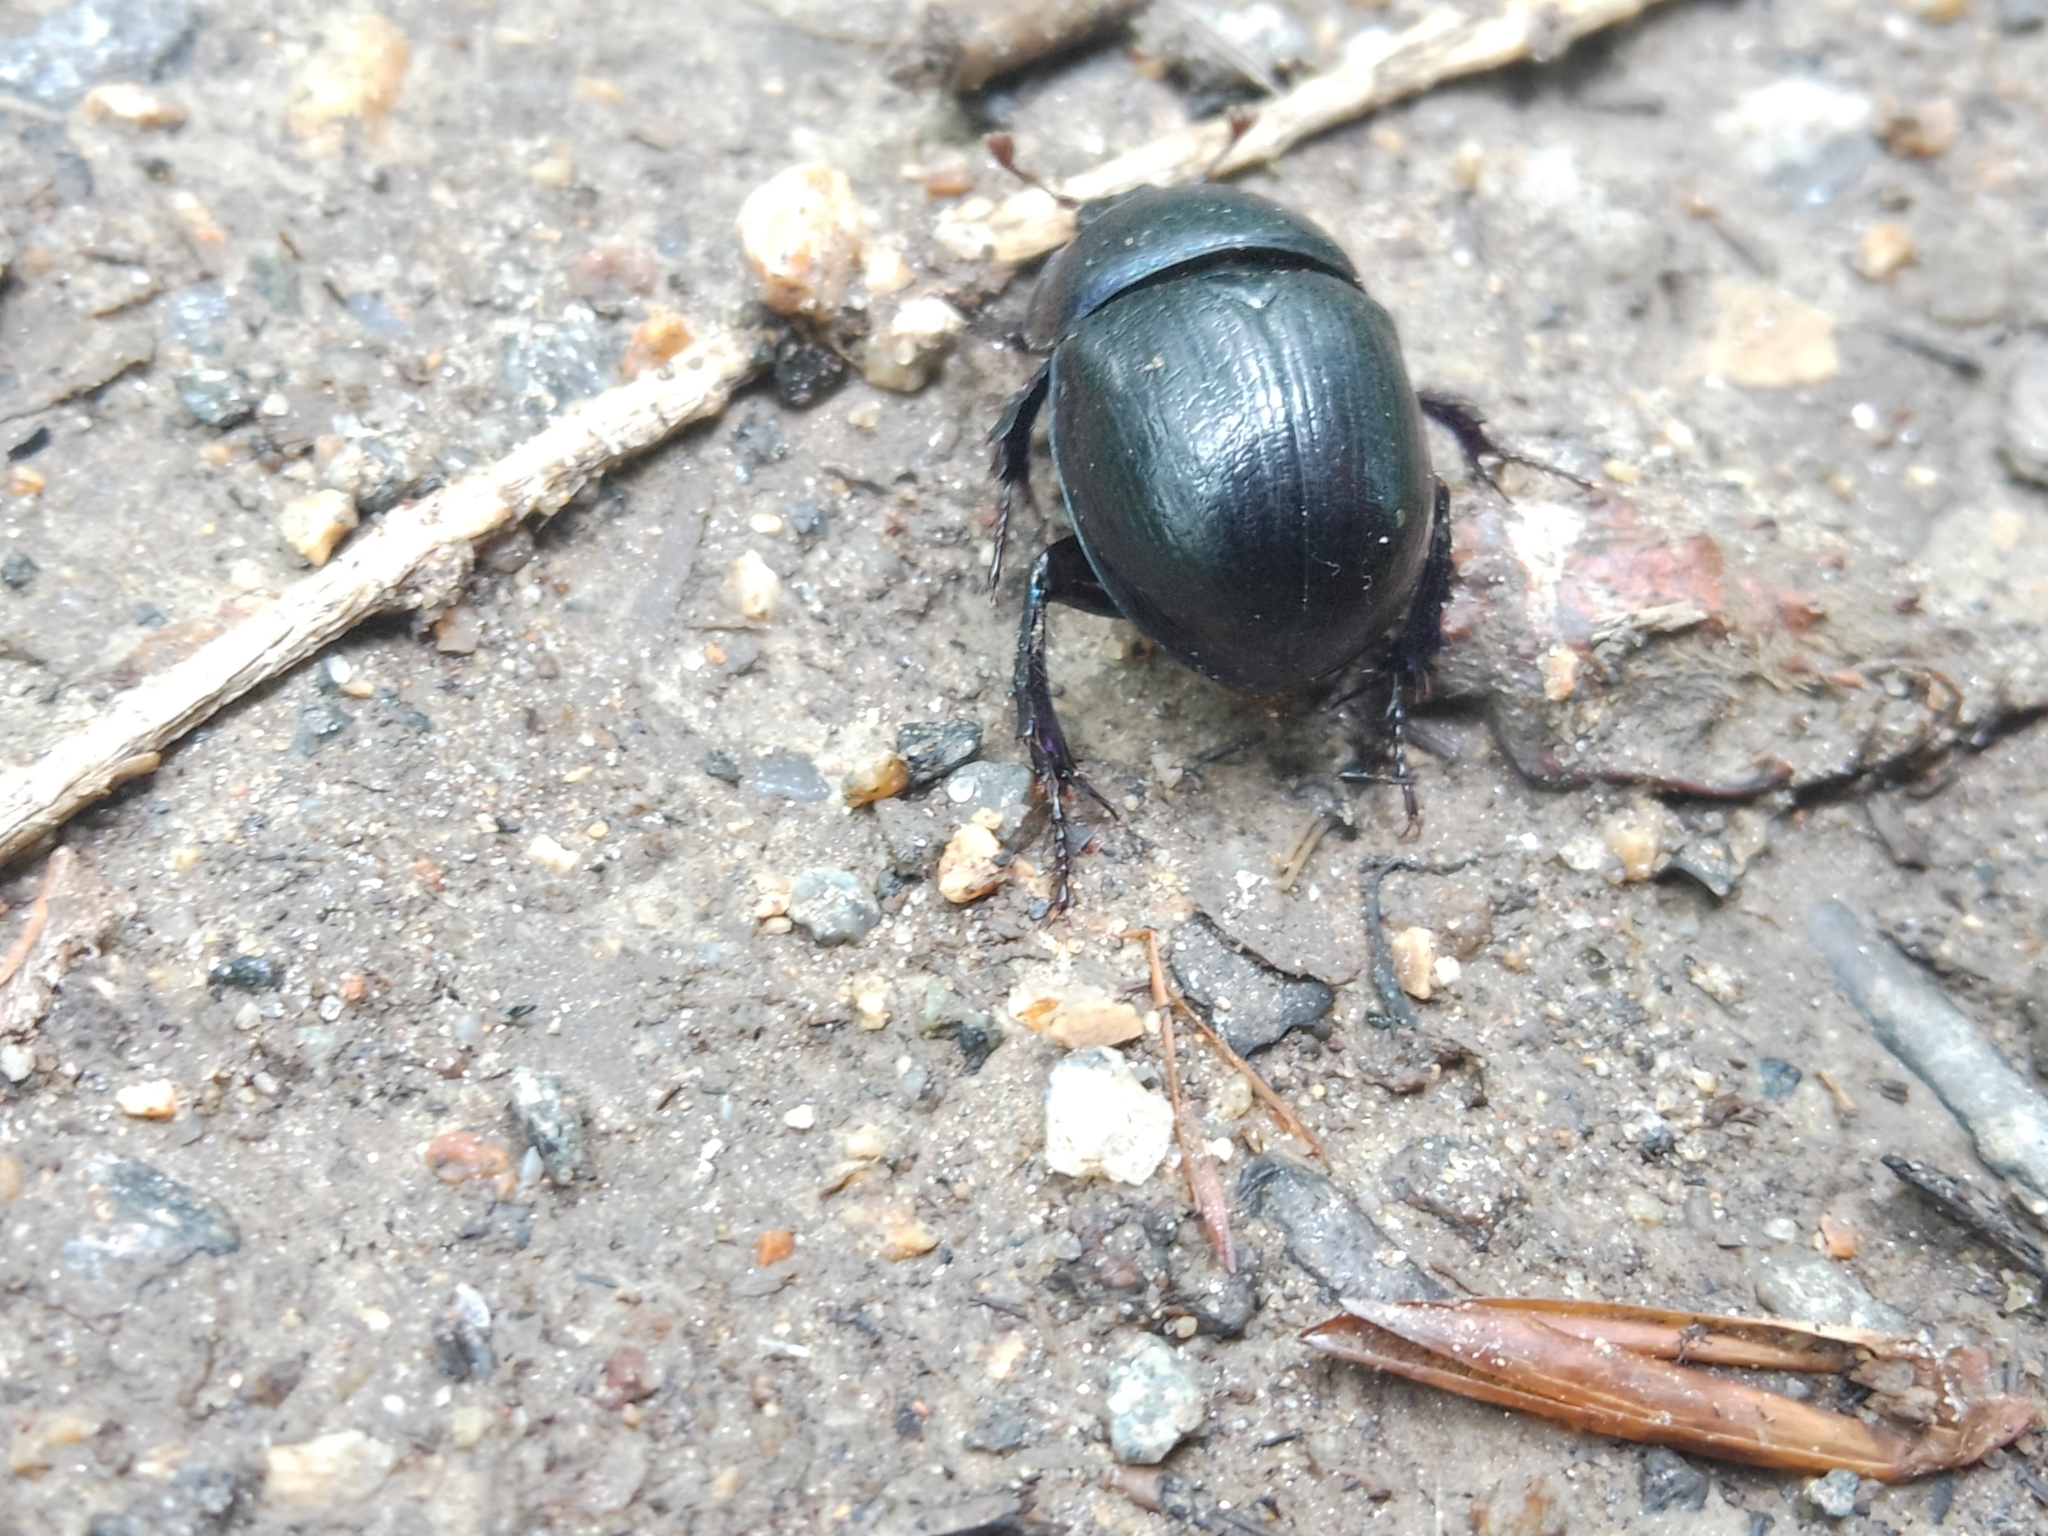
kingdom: Animalia
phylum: Arthropoda
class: Insecta
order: Coleoptera
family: Geotrupidae
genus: Anoplotrupes
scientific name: Anoplotrupes stercorosus
